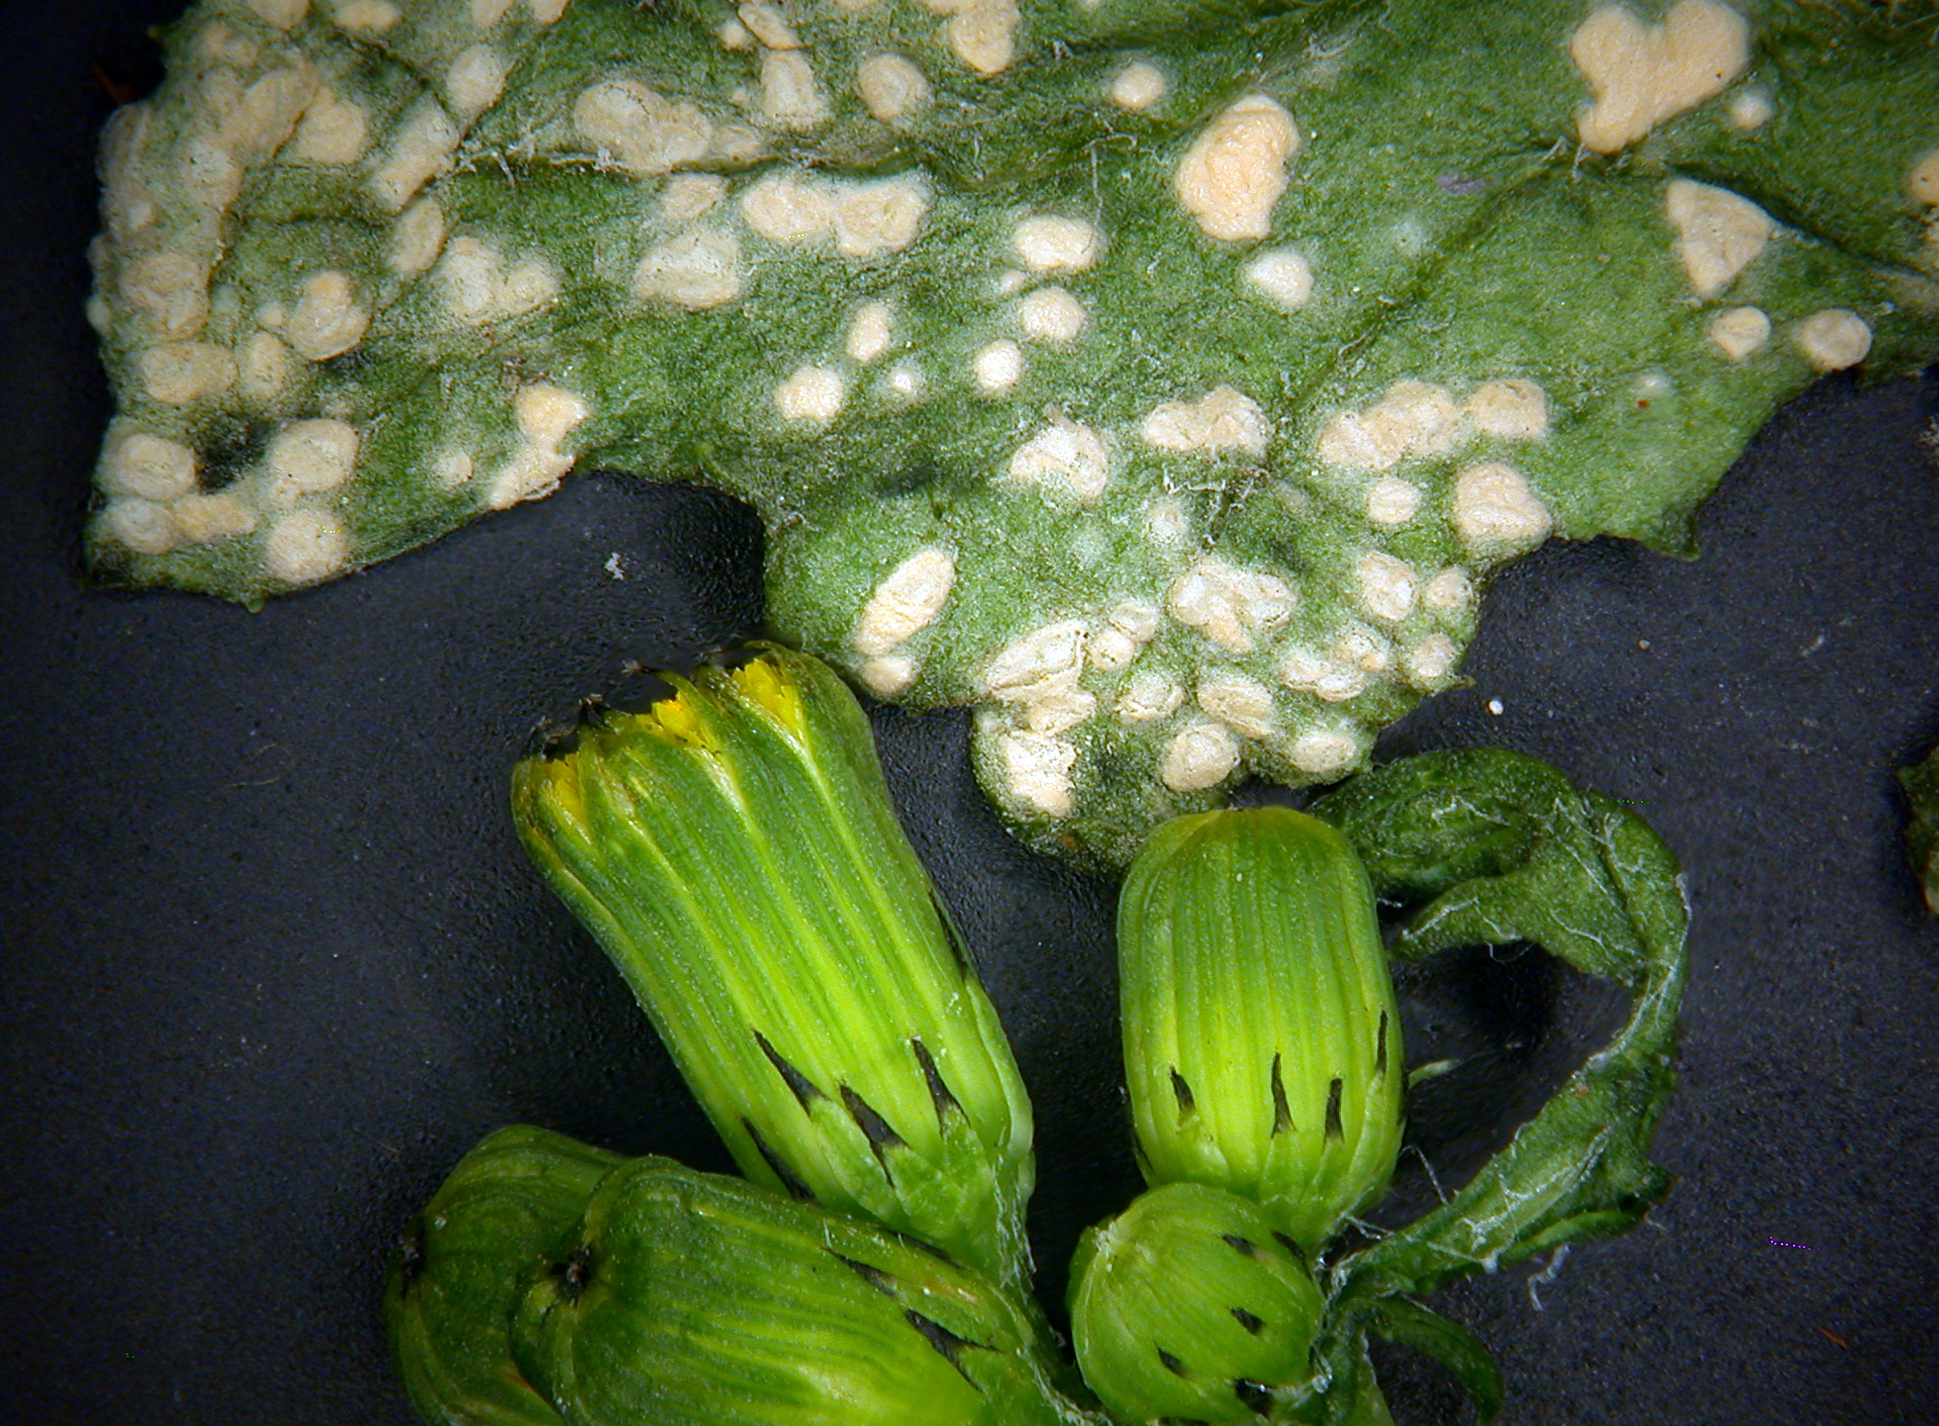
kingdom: Chromista
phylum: Oomycota
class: Peronosporea
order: Albuginales
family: Albuginaceae
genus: Pustula
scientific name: Pustula
